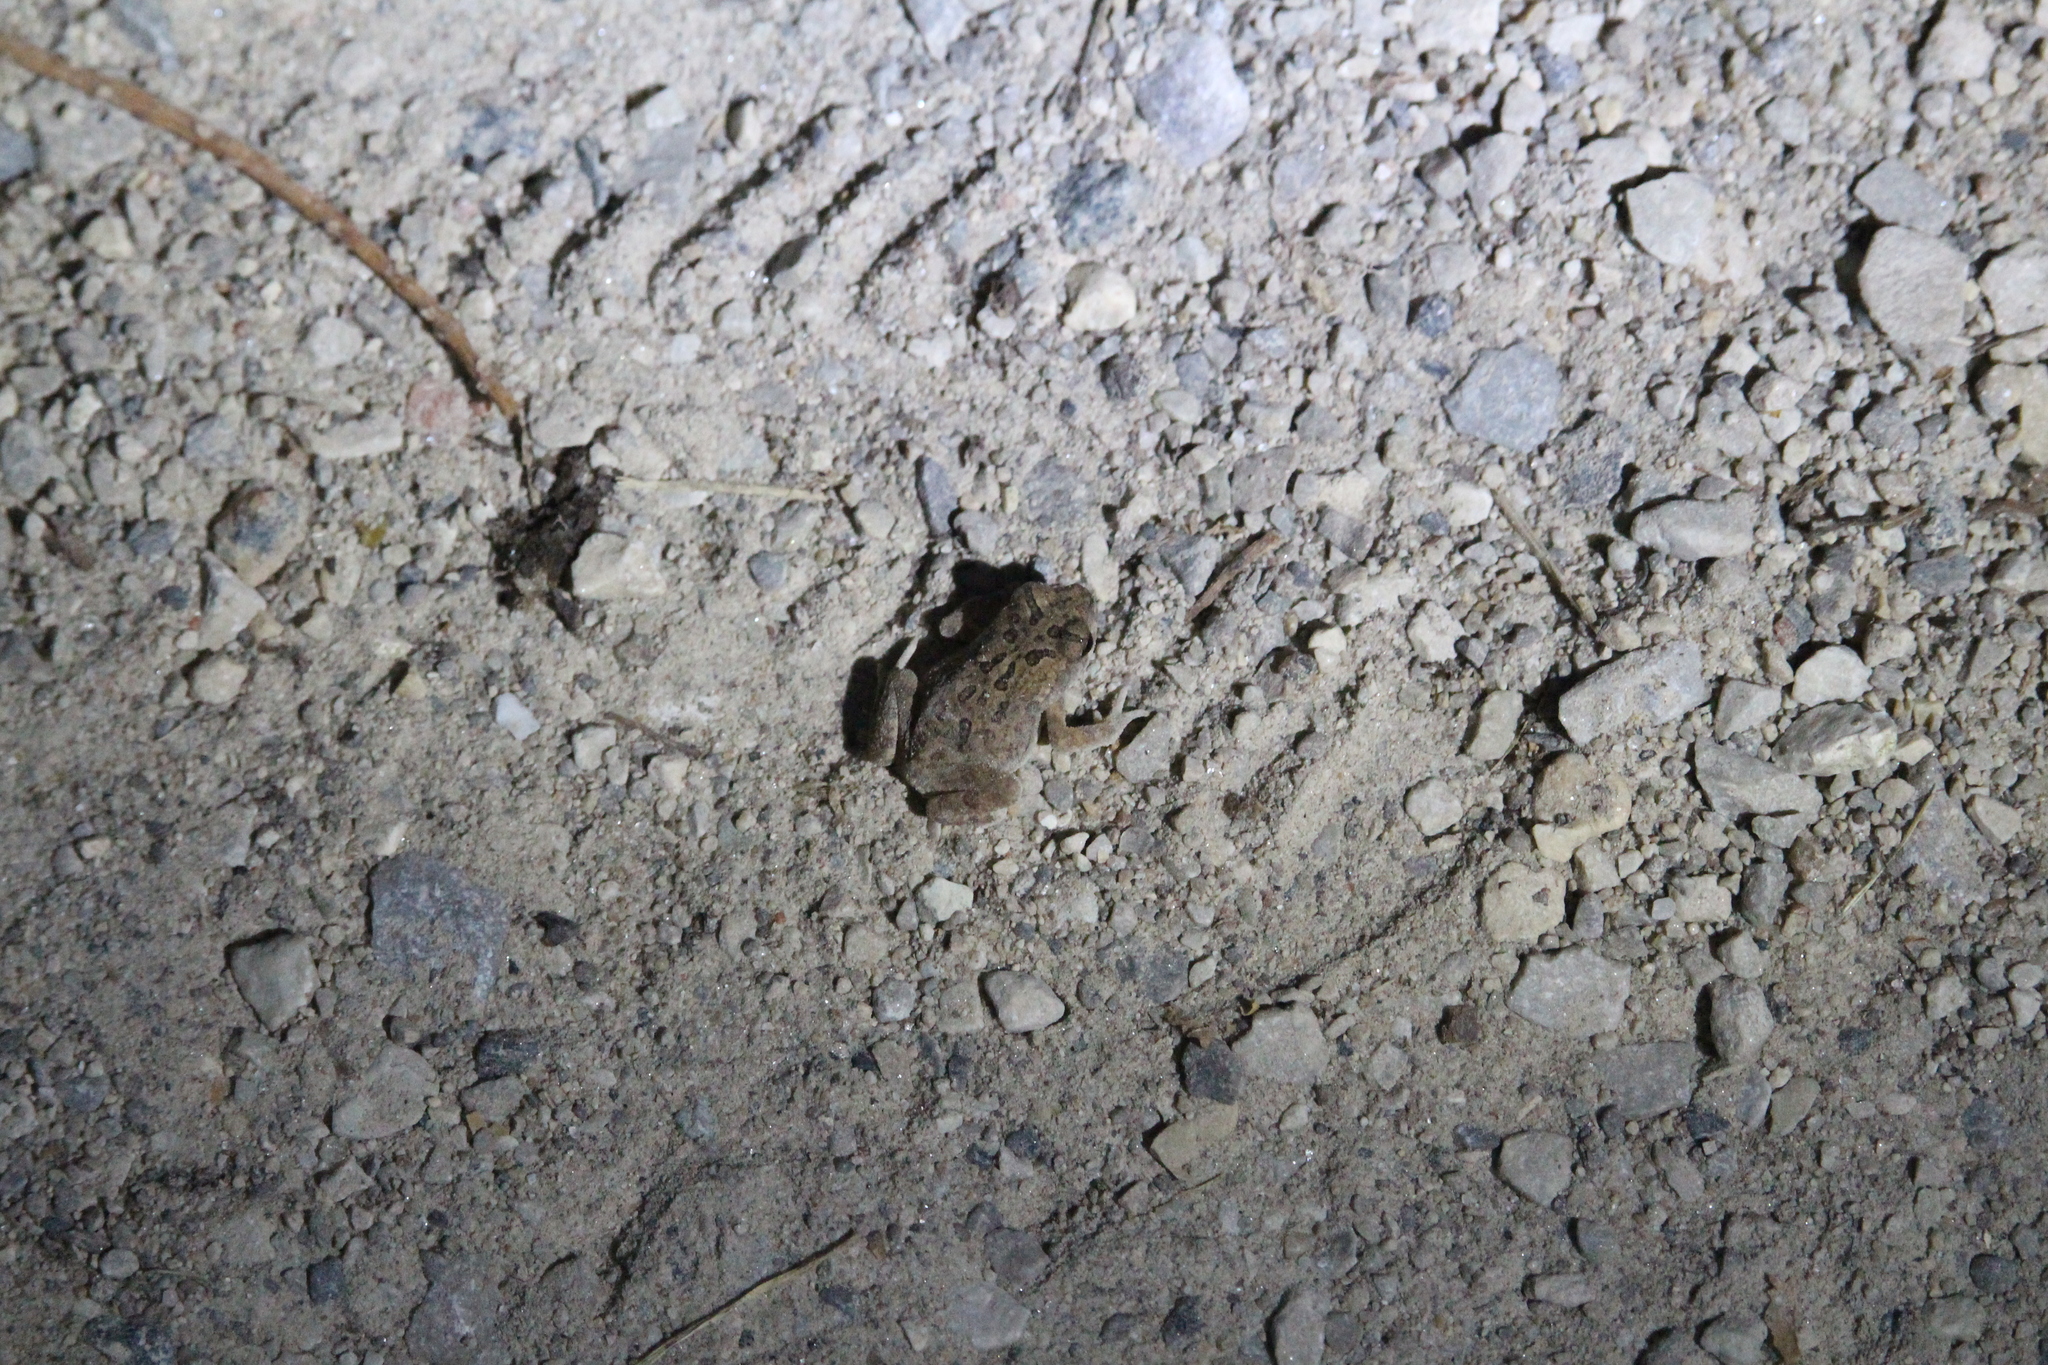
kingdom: Animalia
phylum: Chordata
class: Amphibia
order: Anura
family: Bufonidae
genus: Anaxyrus
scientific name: Anaxyrus americanus
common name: American toad
